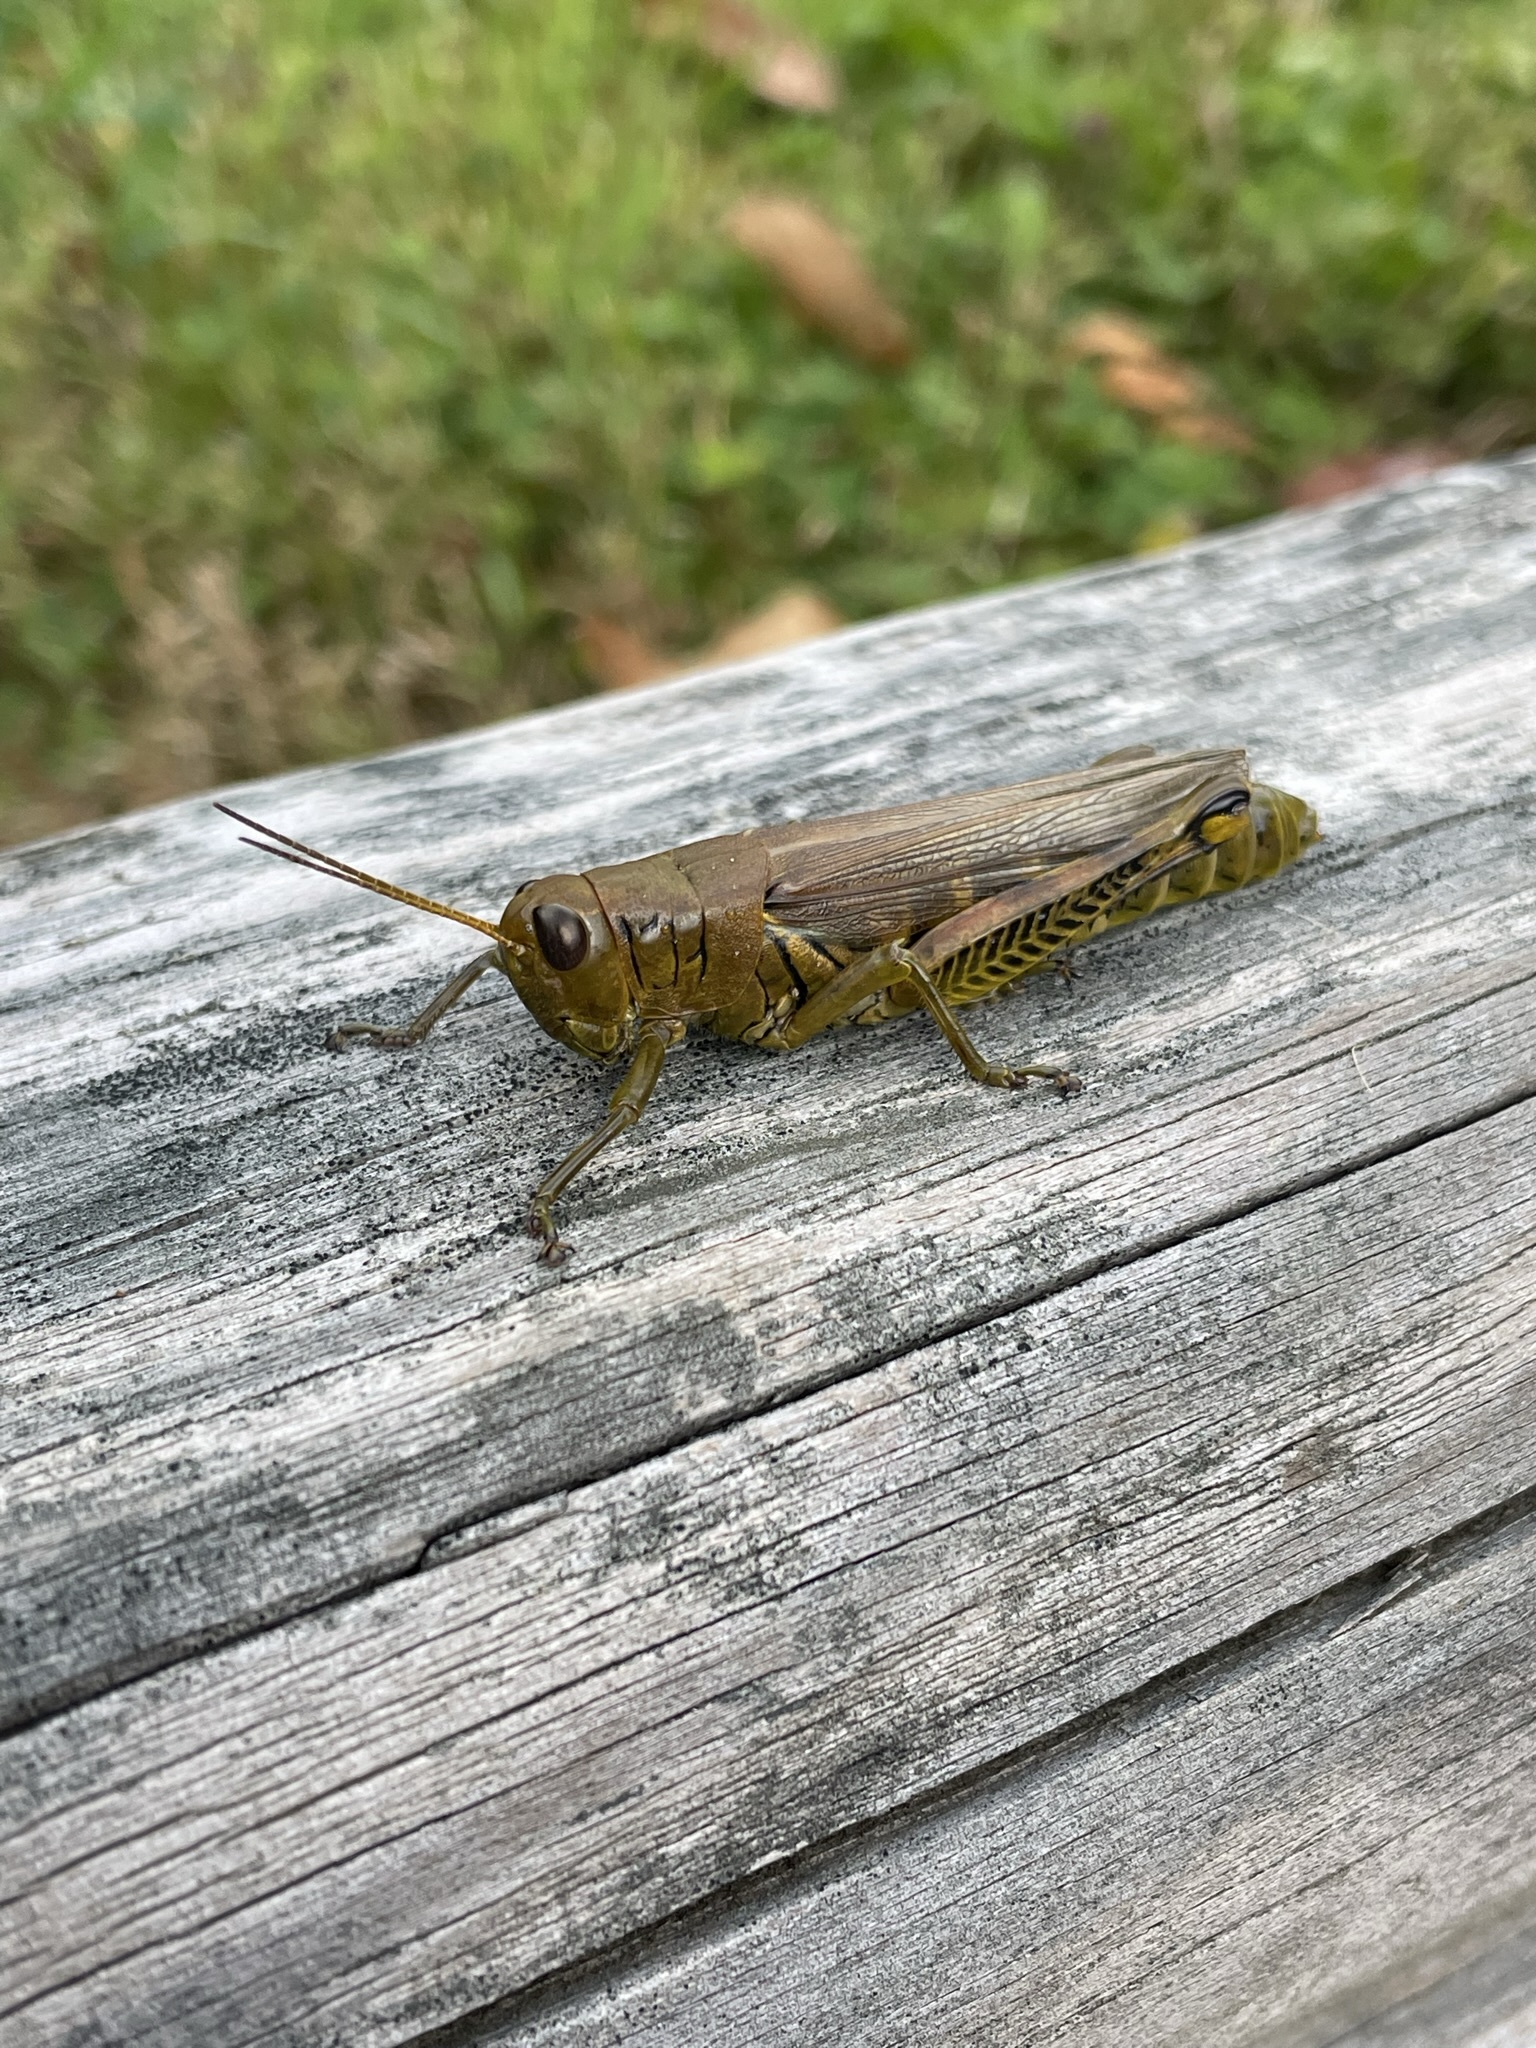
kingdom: Animalia
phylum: Arthropoda
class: Insecta
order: Orthoptera
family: Acrididae
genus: Melanoplus
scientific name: Melanoplus differentialis
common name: Differential grasshopper
